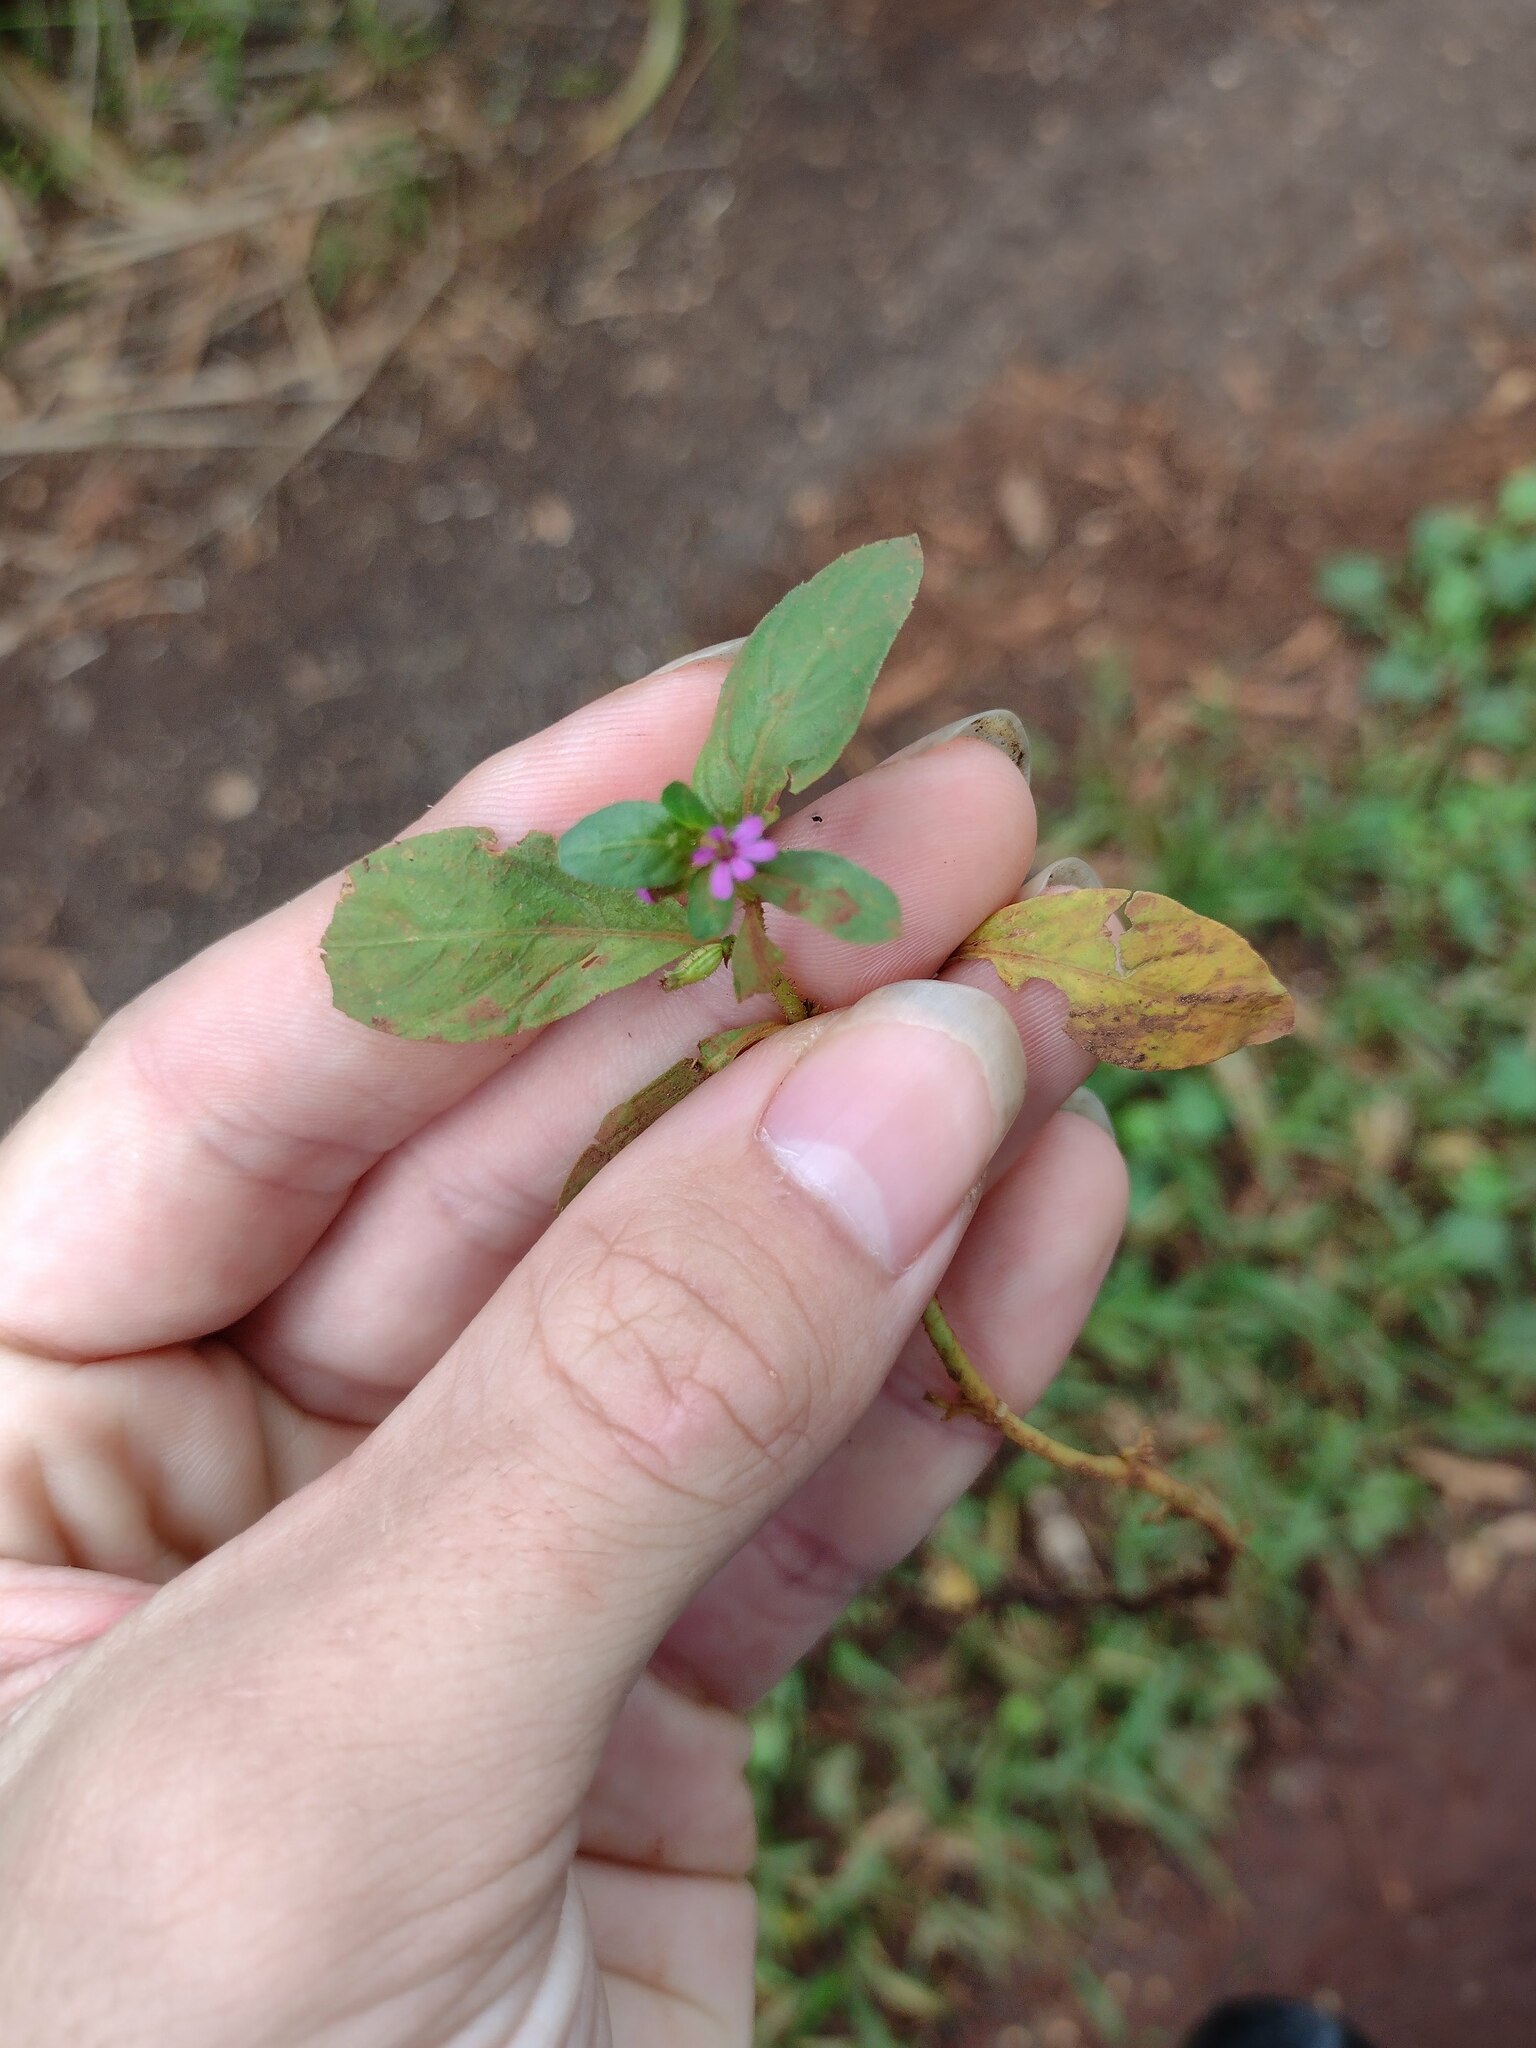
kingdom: Plantae
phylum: Tracheophyta
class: Magnoliopsida
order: Myrtales
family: Lythraceae
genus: Cuphea
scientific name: Cuphea carthagenensis
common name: Colombian waxweed
